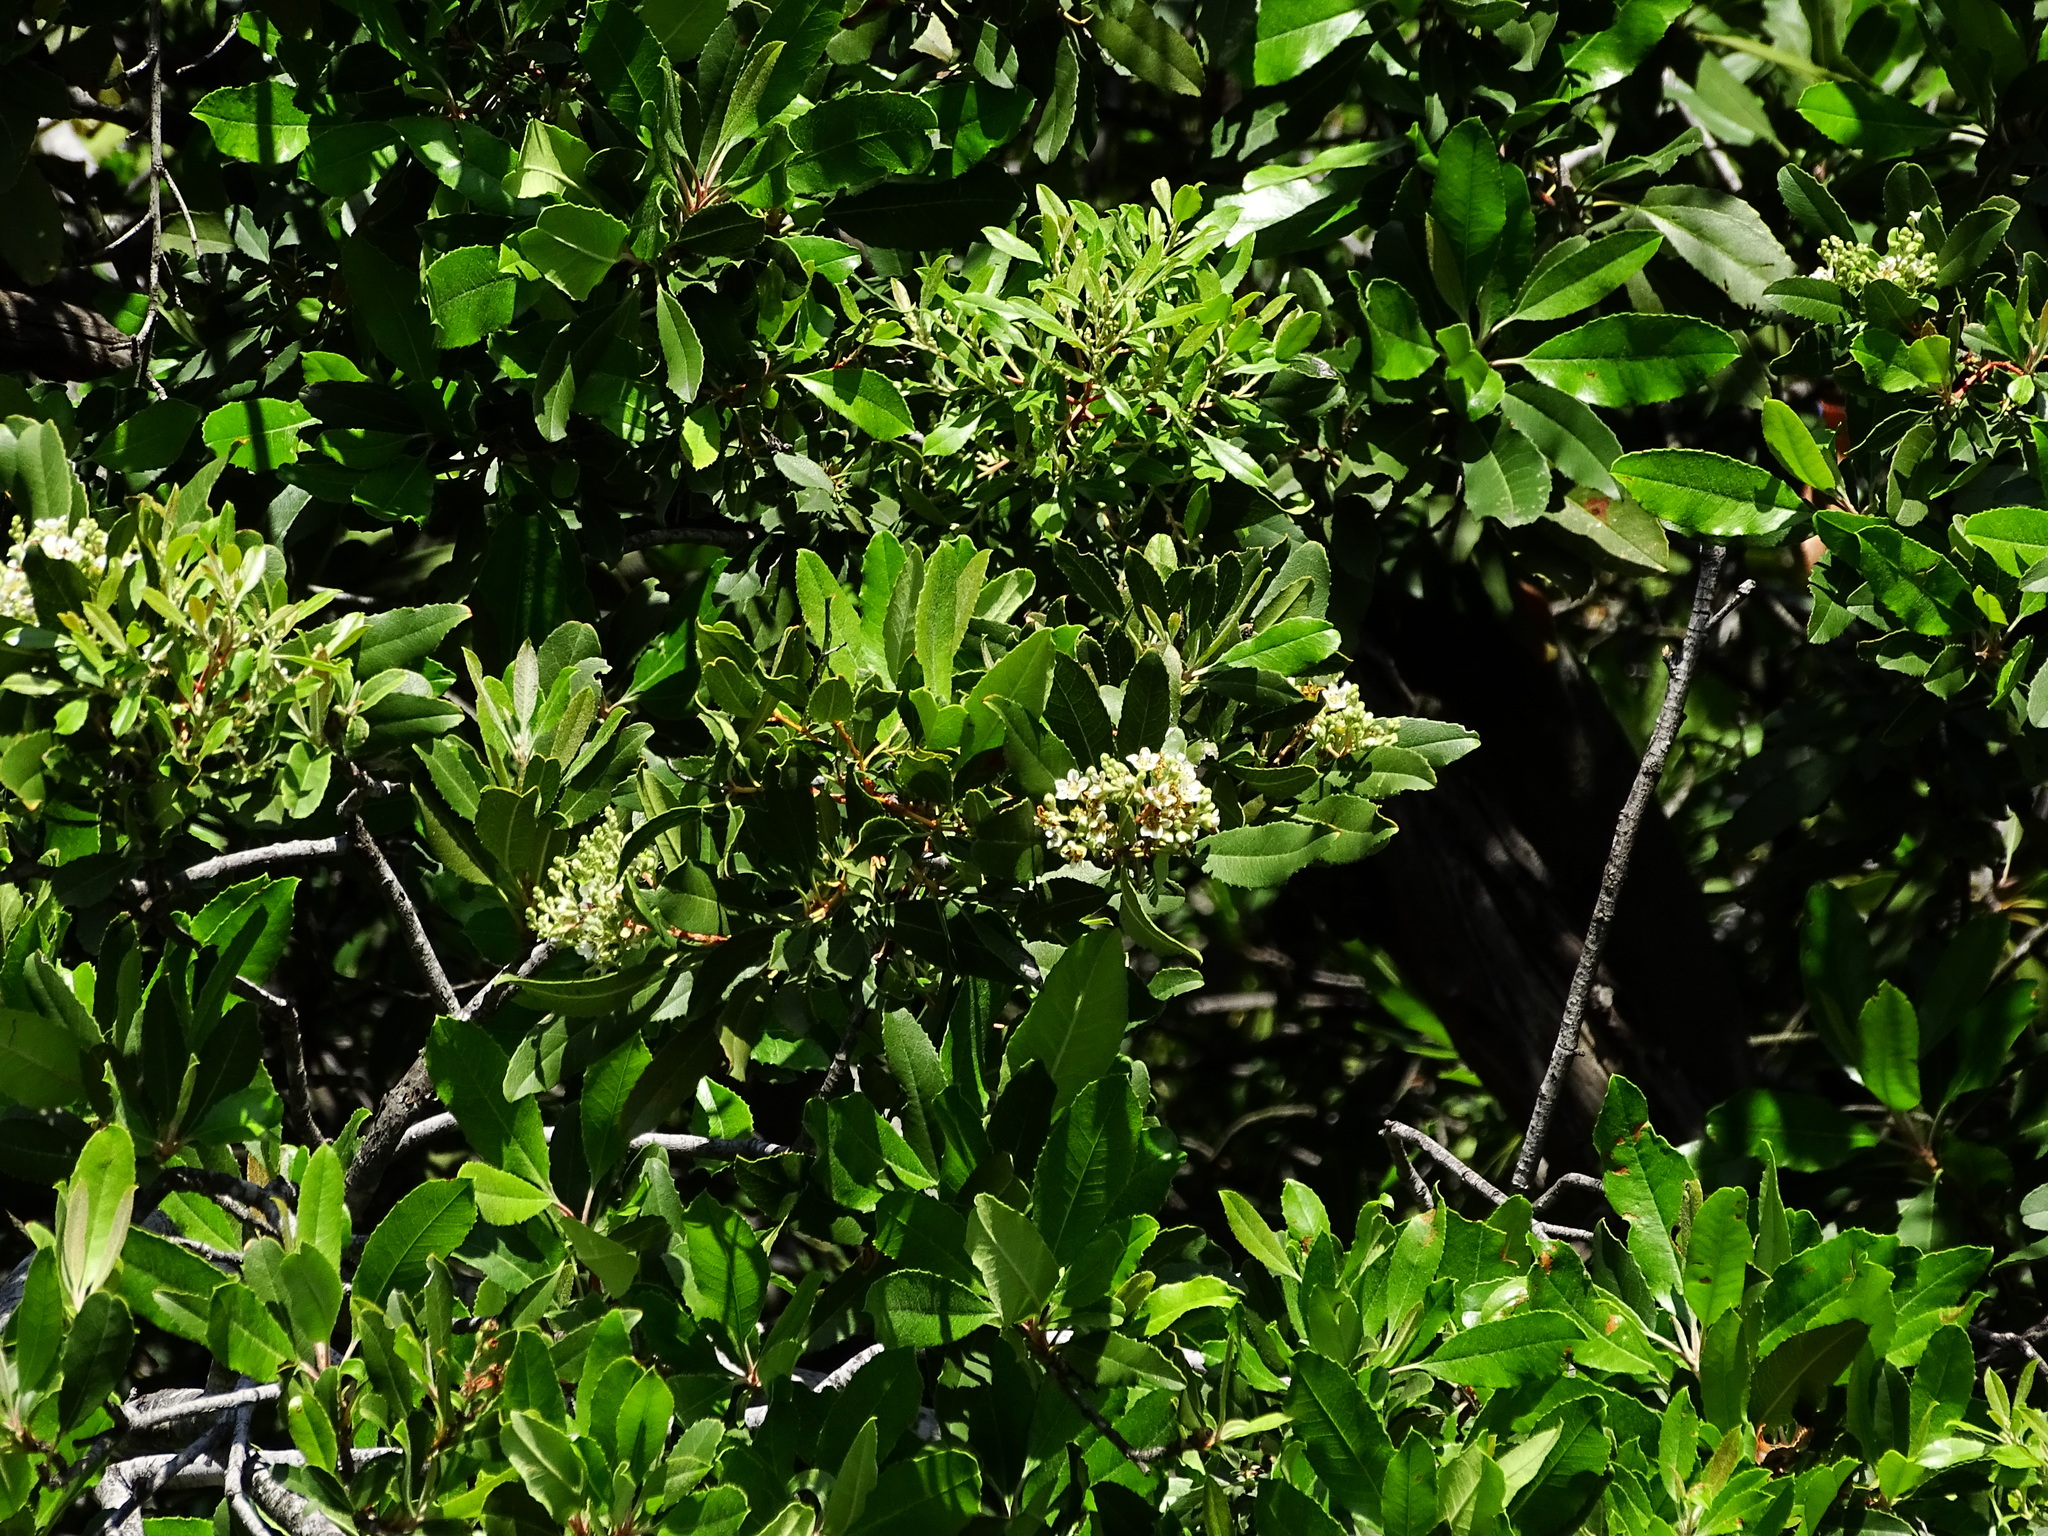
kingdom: Plantae
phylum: Tracheophyta
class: Magnoliopsida
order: Rosales
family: Rosaceae
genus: Heteromeles
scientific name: Heteromeles arbutifolia
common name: California-holly
